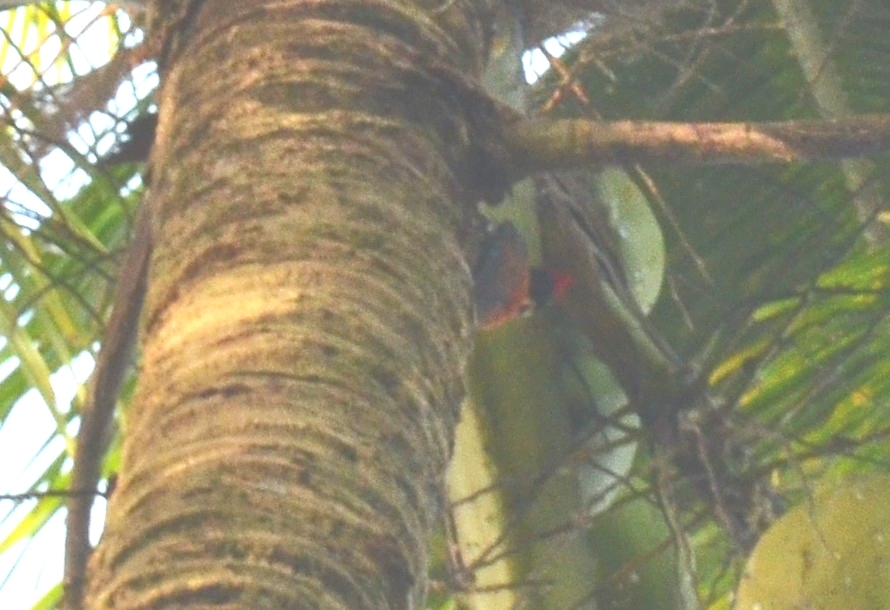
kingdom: Animalia
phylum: Chordata
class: Aves
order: Piciformes
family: Picidae
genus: Dinopium
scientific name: Dinopium benghalense
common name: Black-rumped flameback
